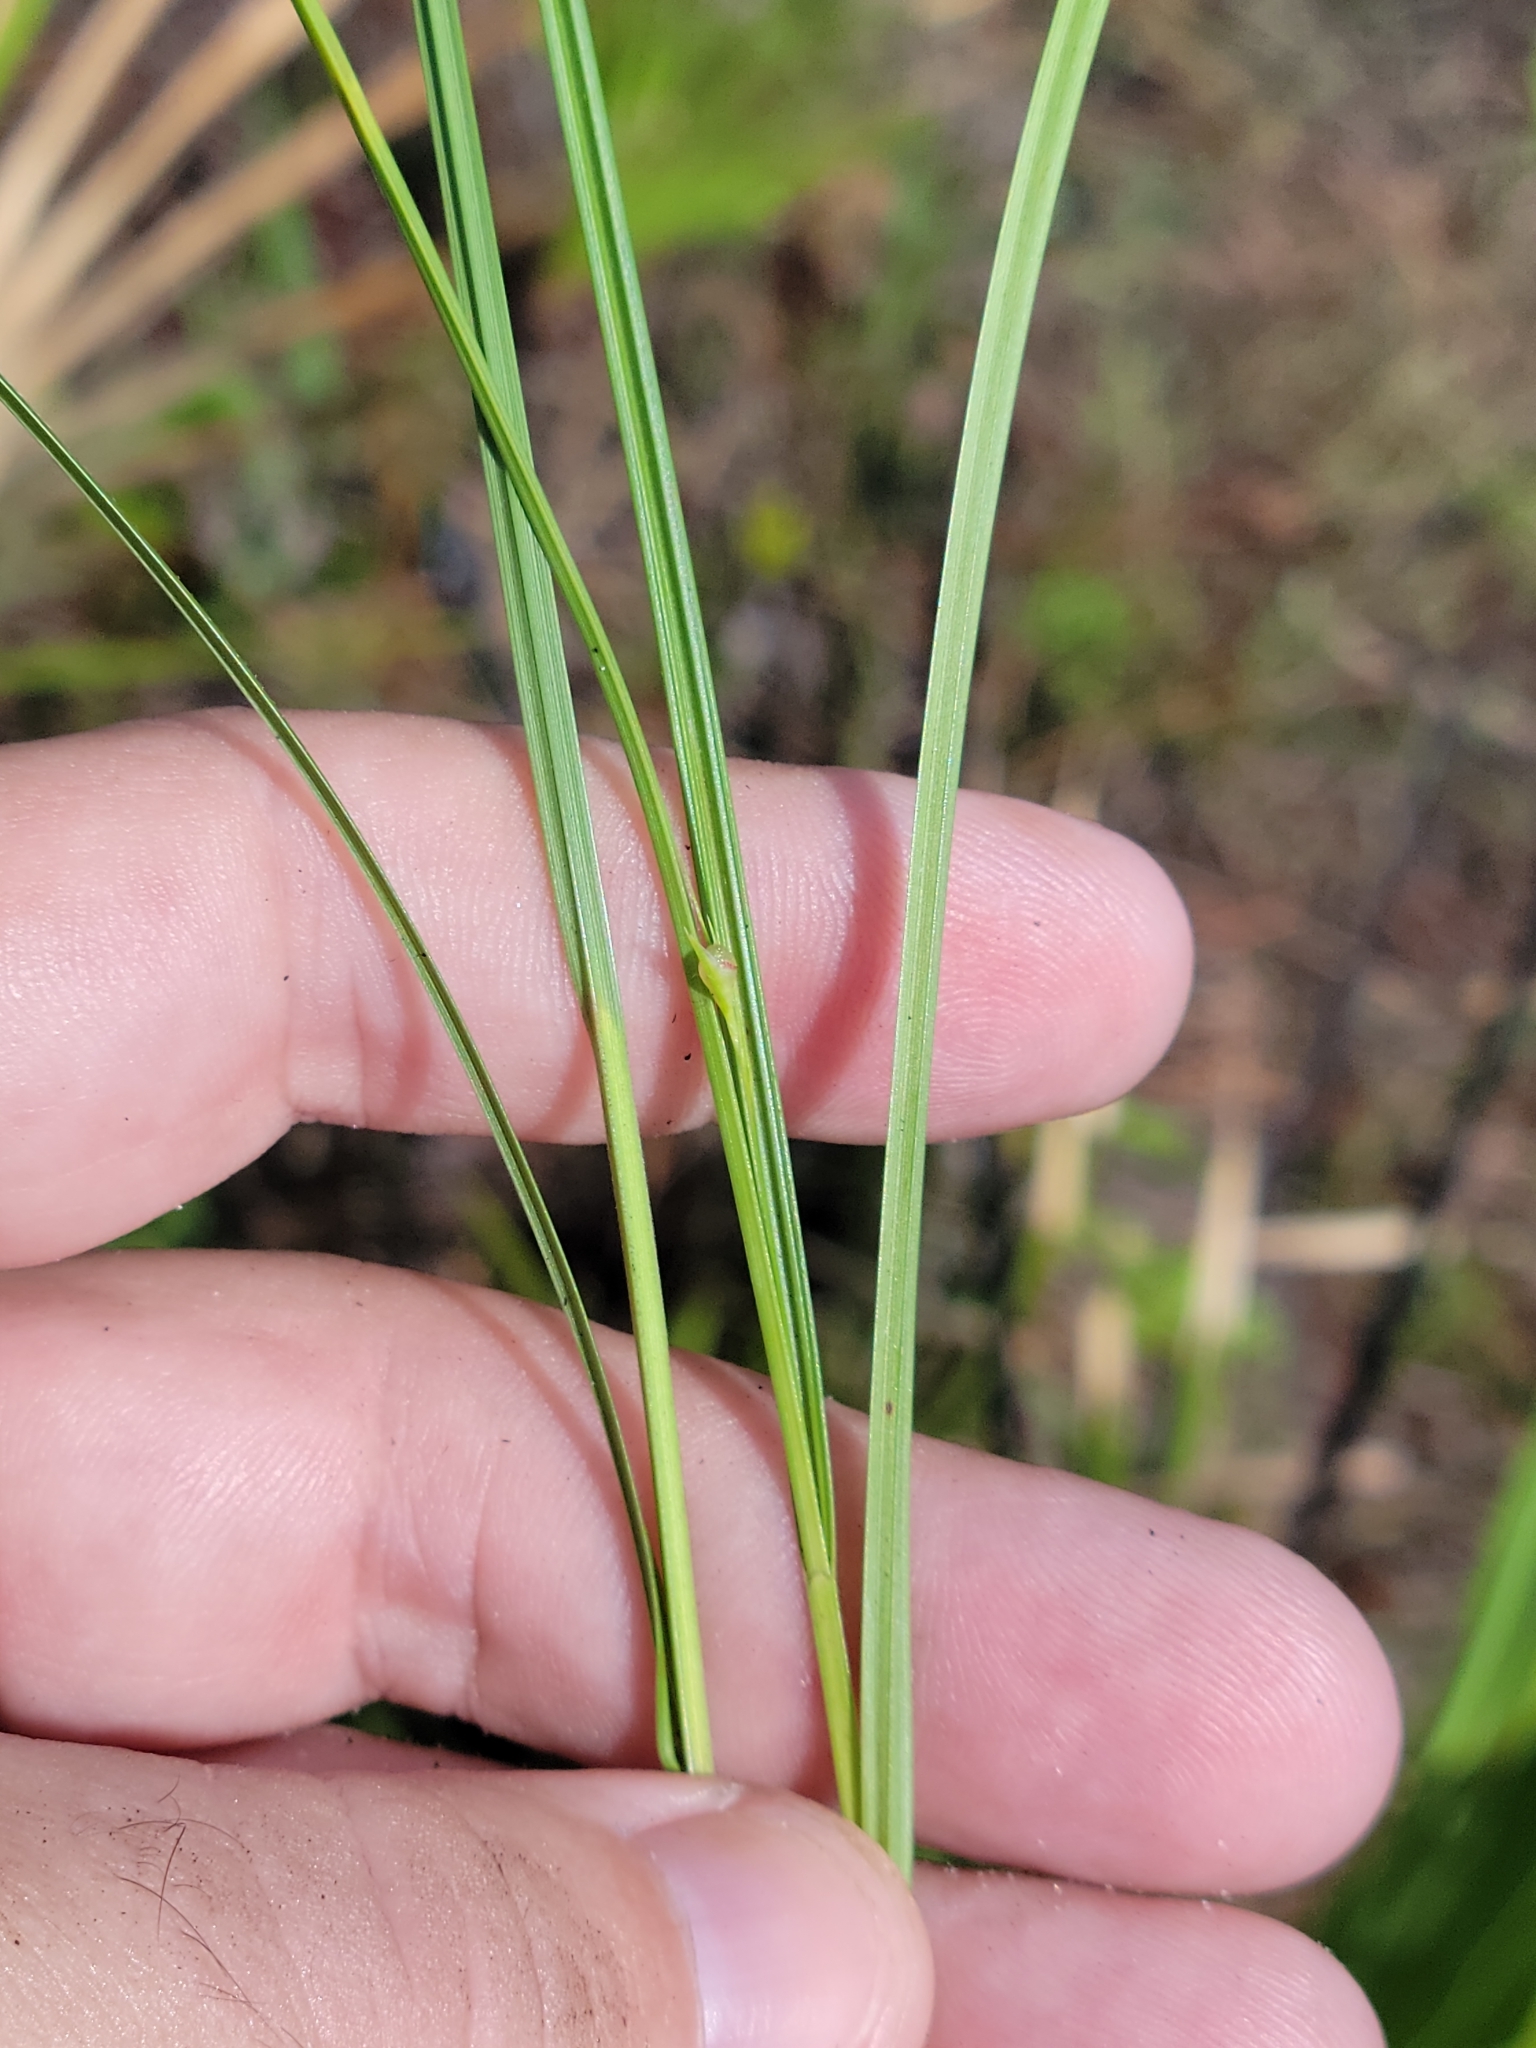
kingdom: Plantae
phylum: Tracheophyta
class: Liliopsida
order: Poales
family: Cyperaceae
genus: Scleria
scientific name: Scleria ciliata
